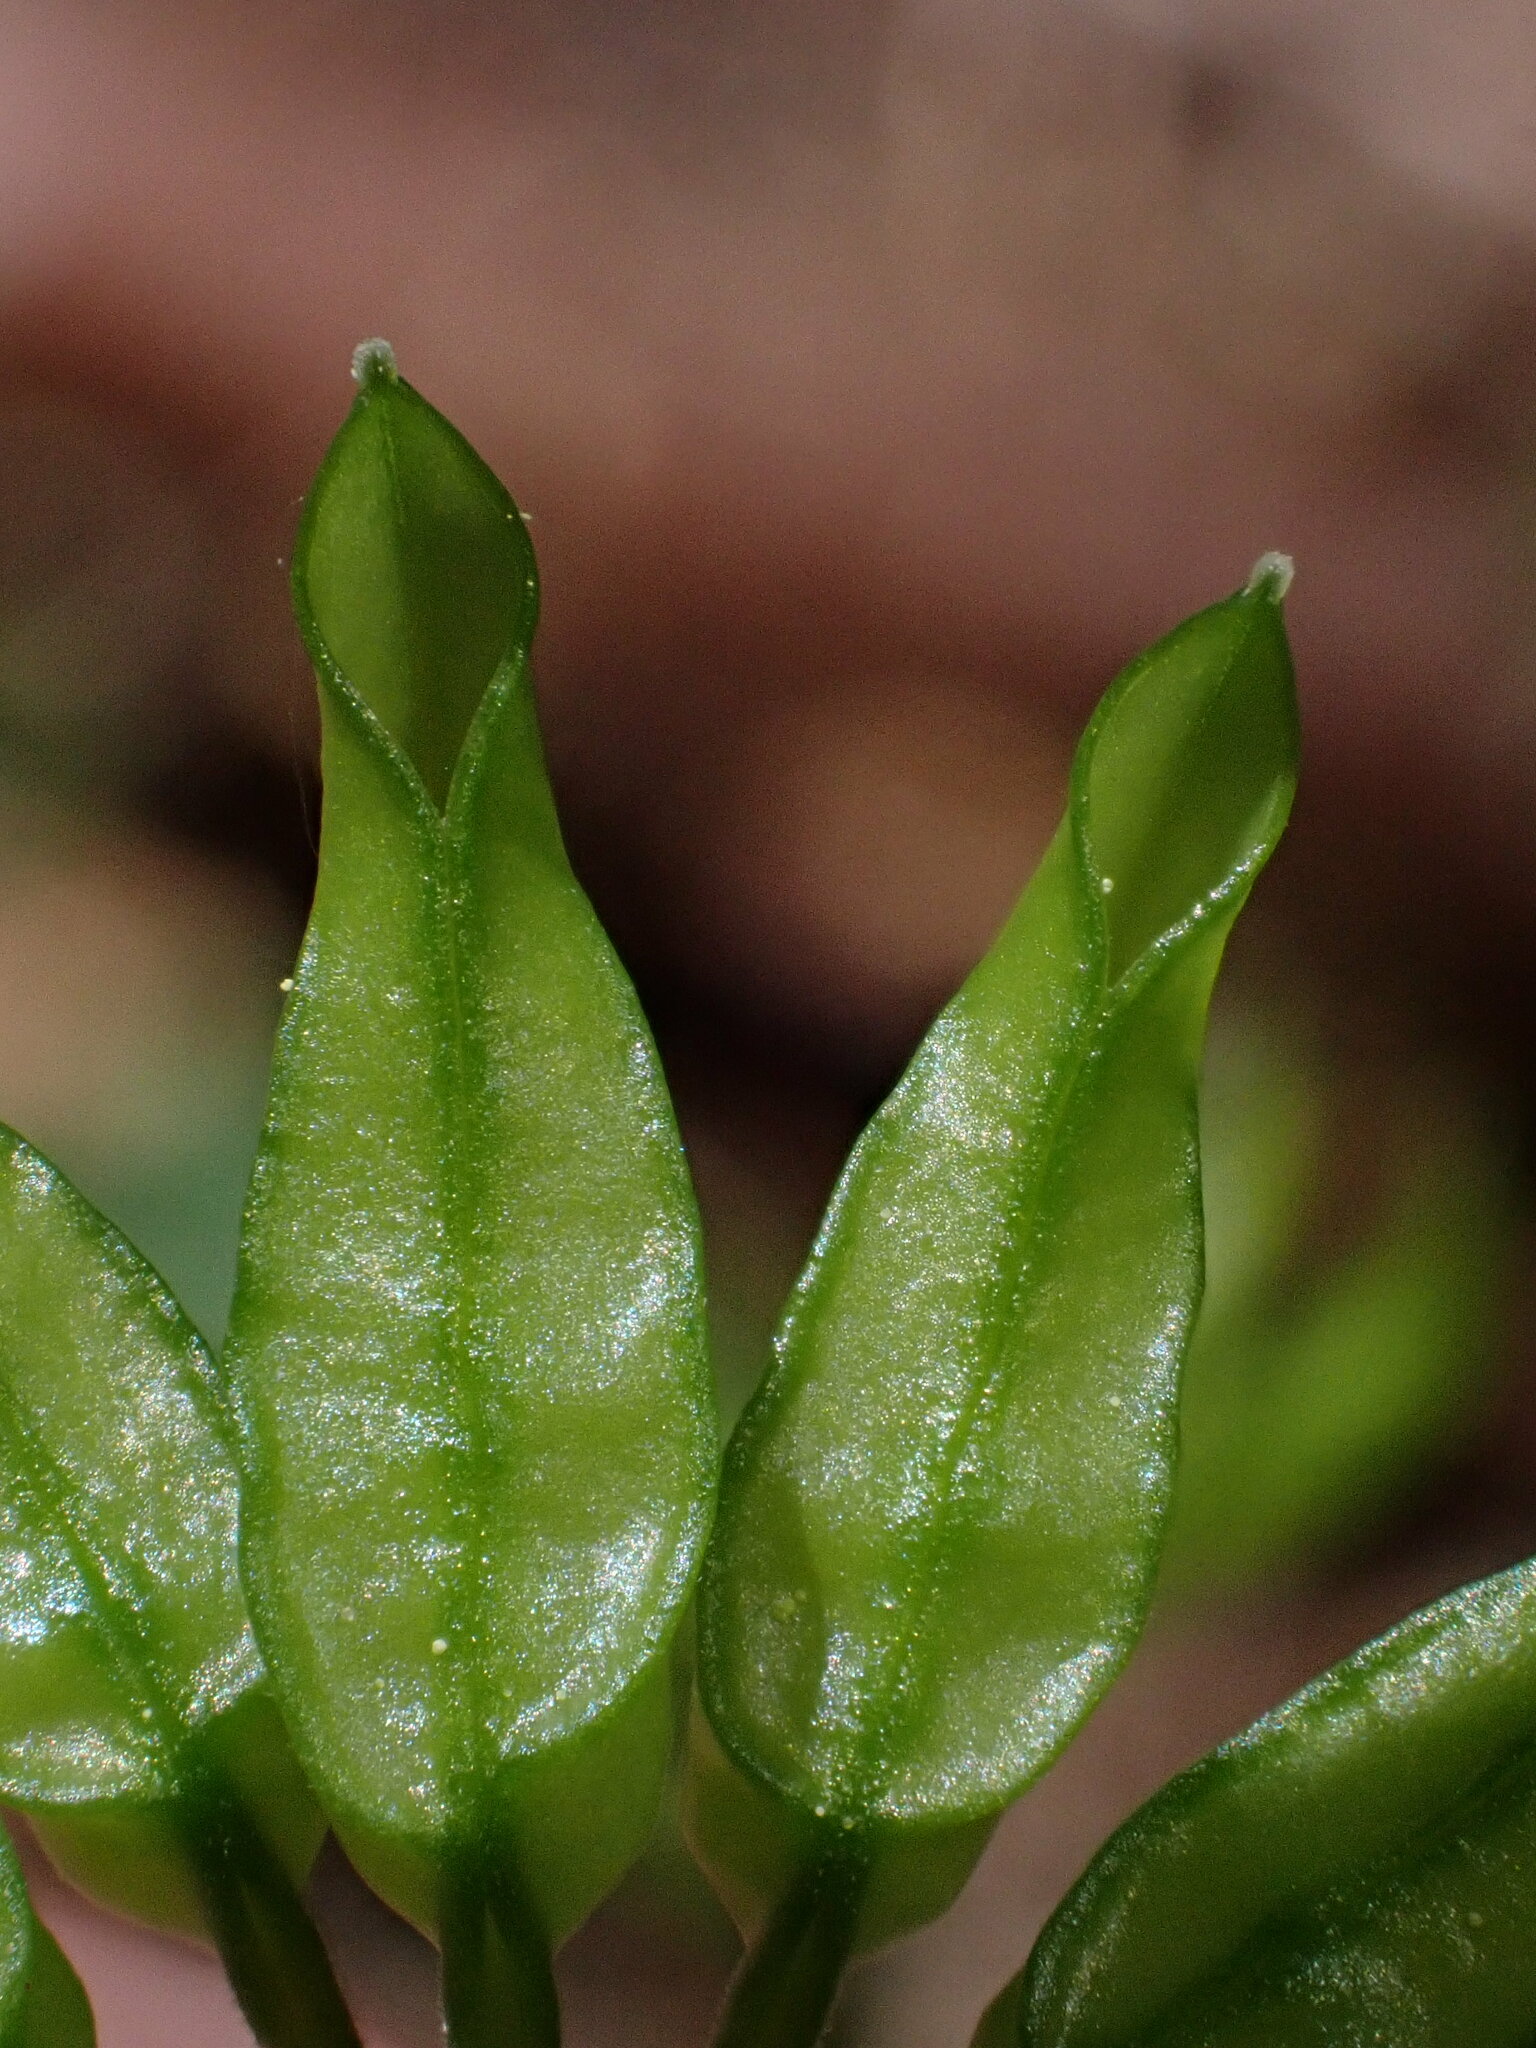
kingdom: Plantae
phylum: Tracheophyta
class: Magnoliopsida
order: Ranunculales
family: Ranunculaceae
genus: Coptis
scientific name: Coptis laciniata
